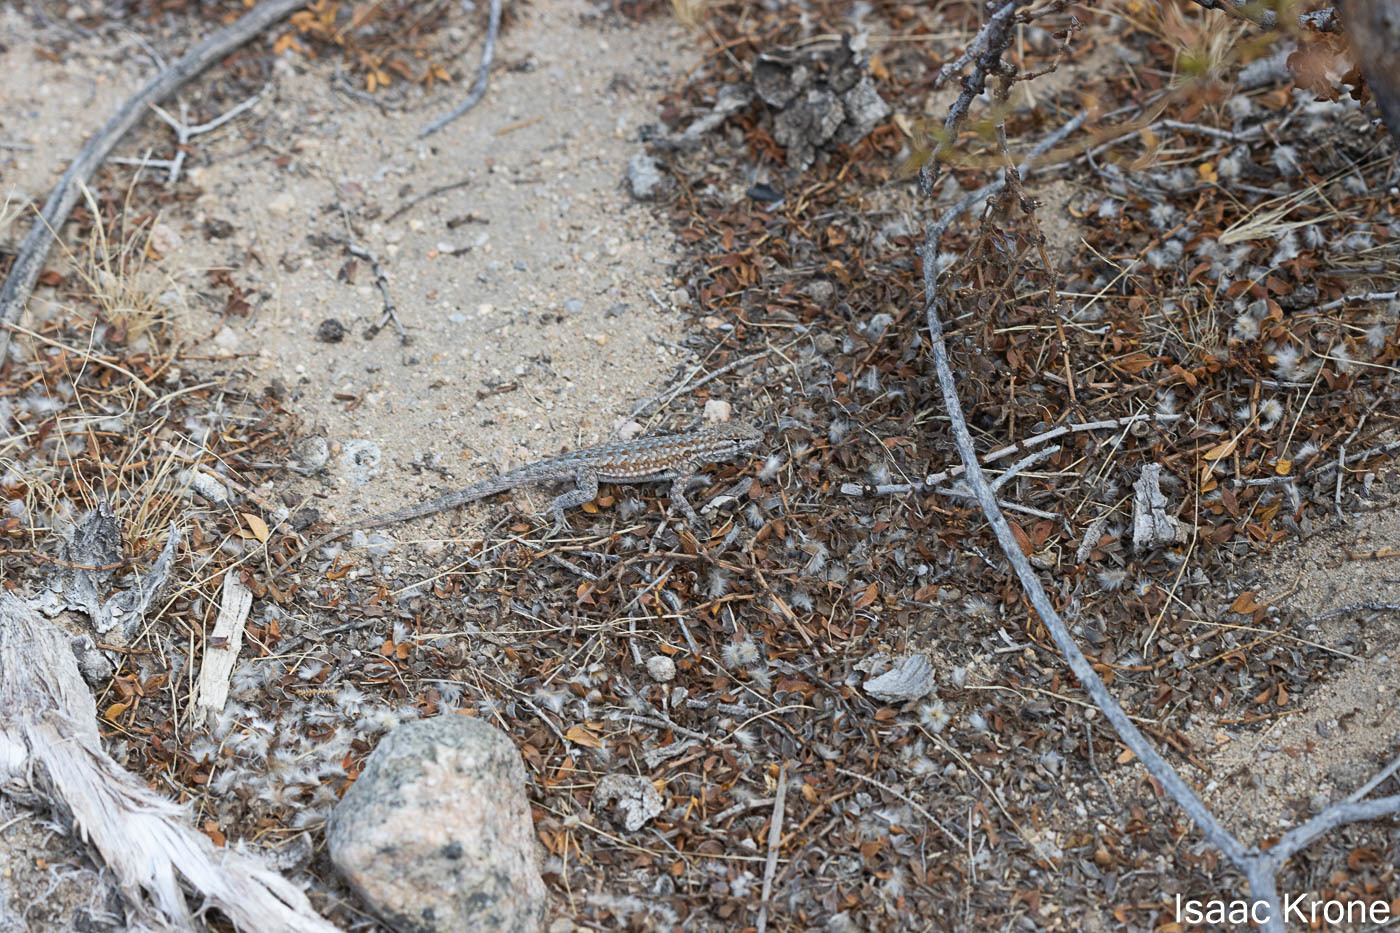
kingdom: Animalia
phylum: Chordata
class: Squamata
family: Phrynosomatidae
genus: Uta
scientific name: Uta stansburiana
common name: Side-blotched lizard
